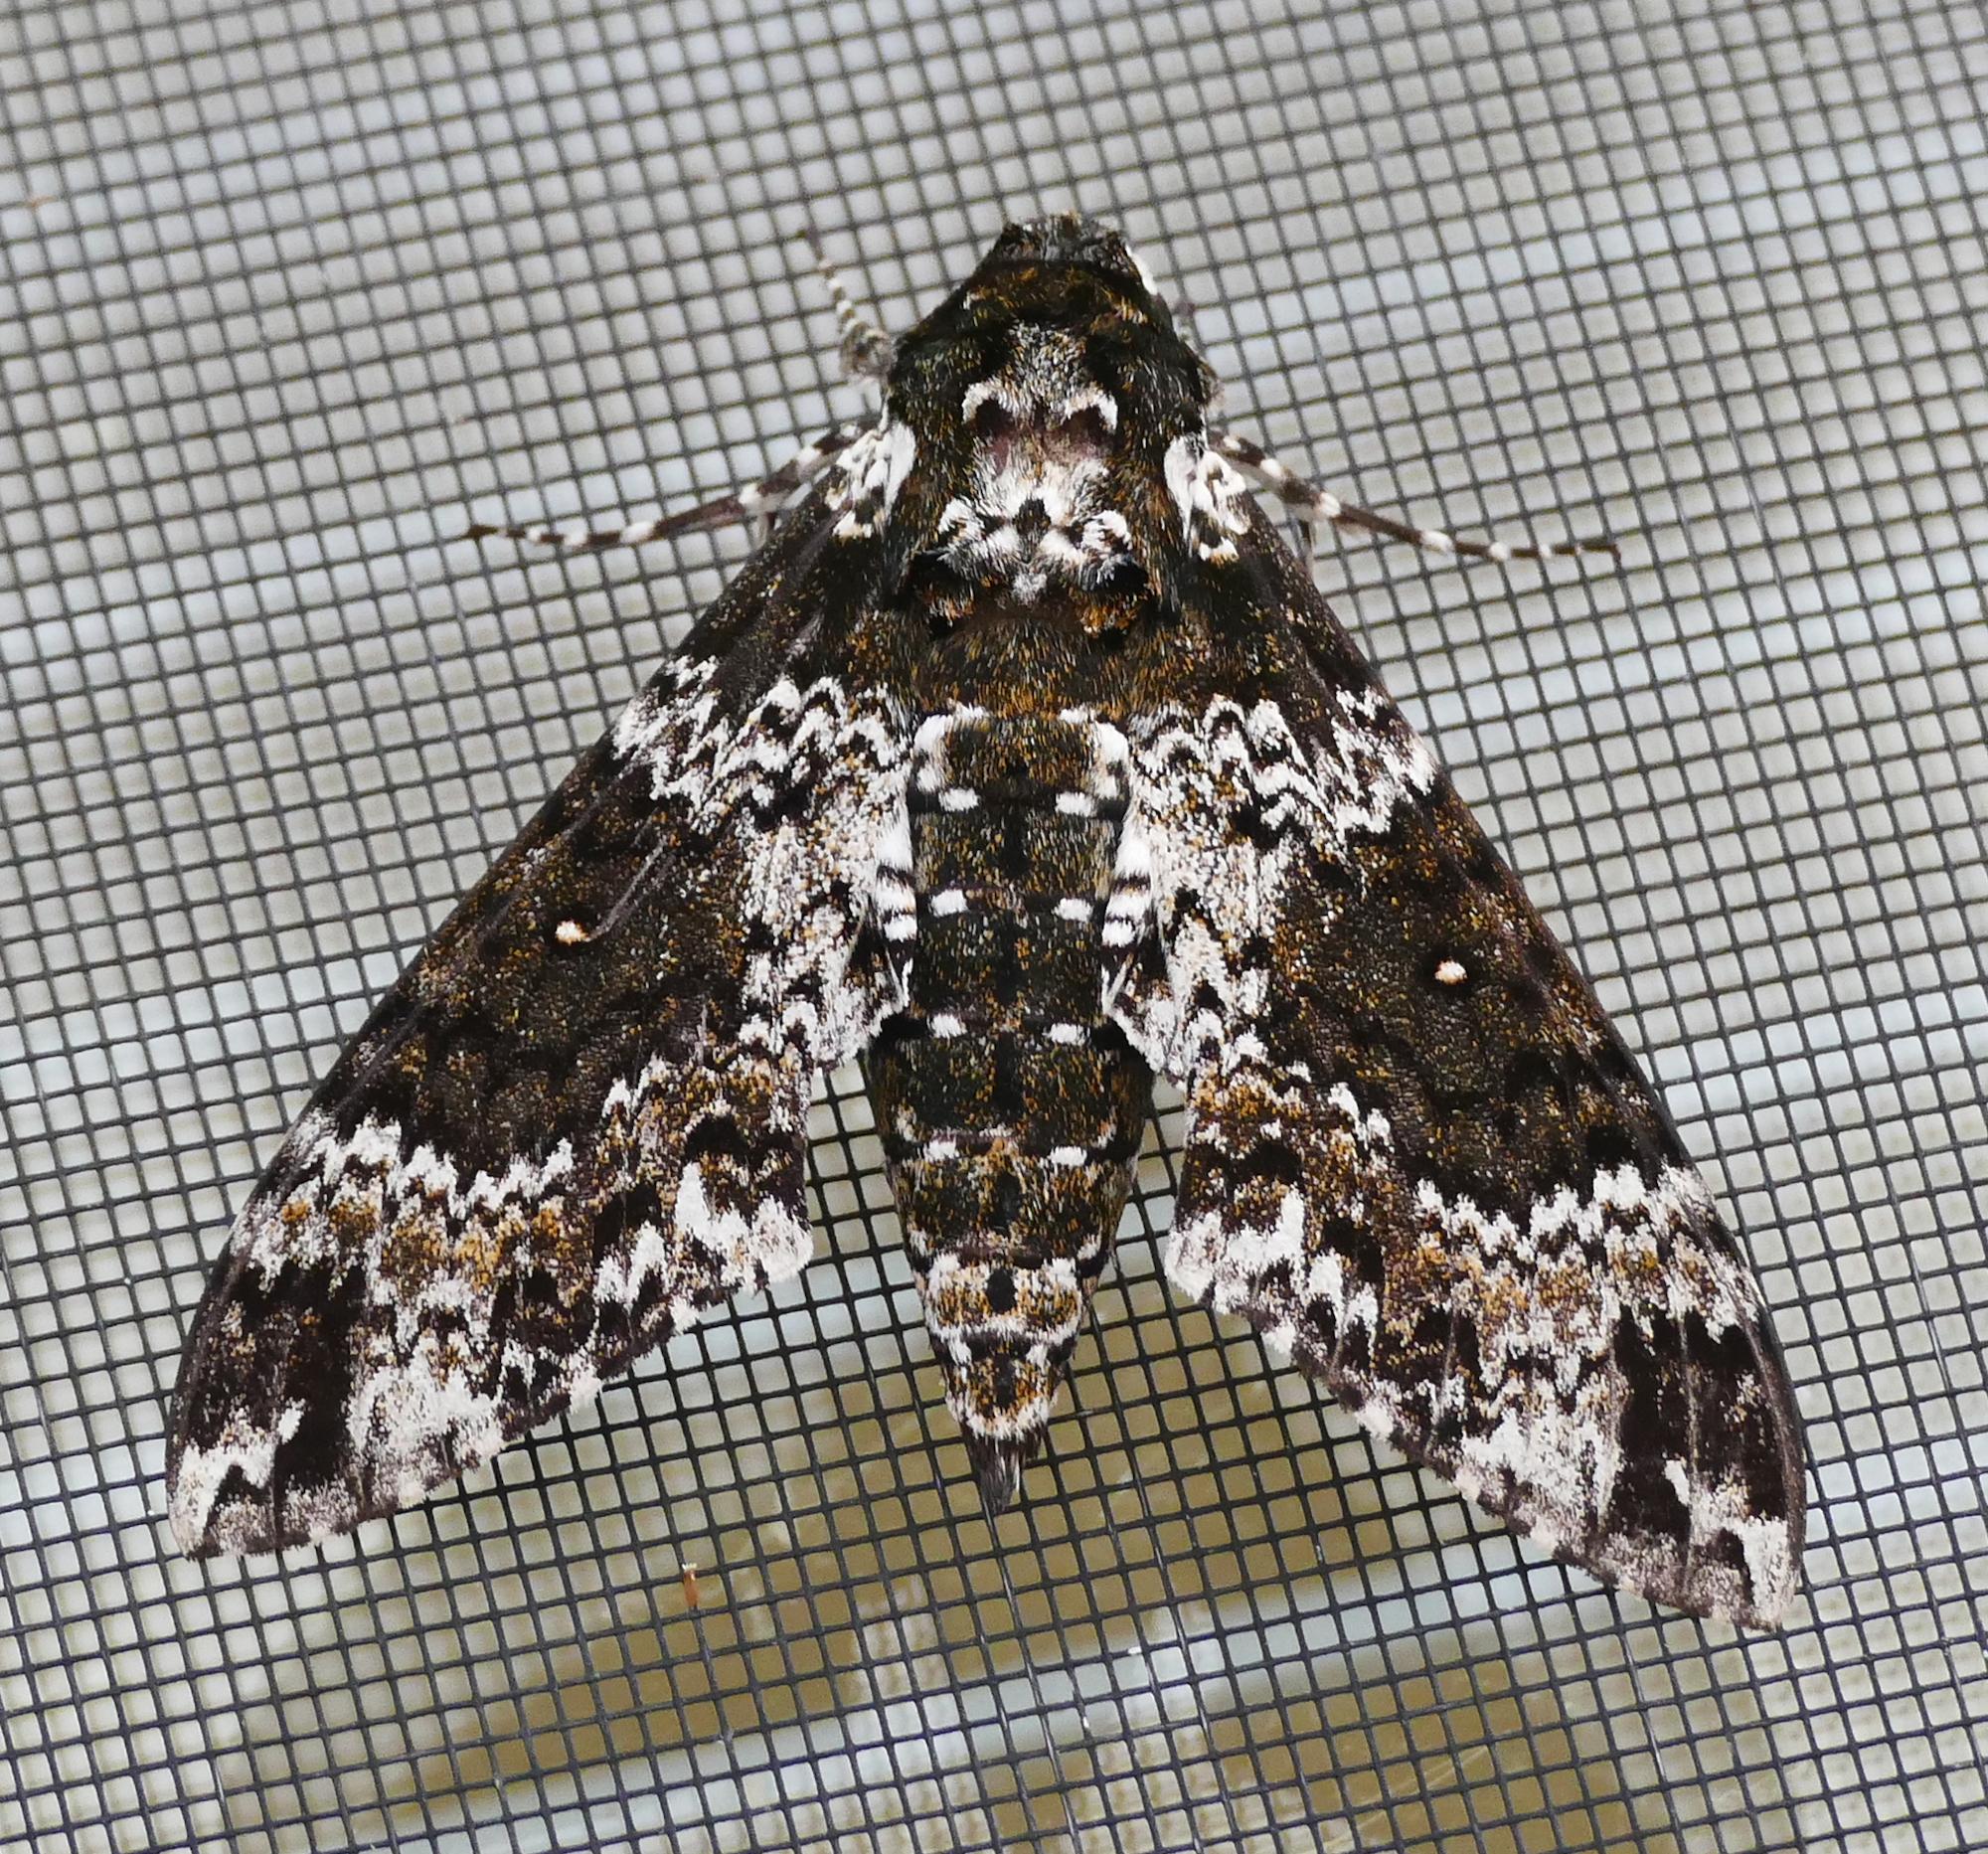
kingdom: Animalia
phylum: Arthropoda
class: Insecta
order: Lepidoptera
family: Sphingidae
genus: Manduca
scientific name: Manduca rustica
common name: Rustic sphinx
